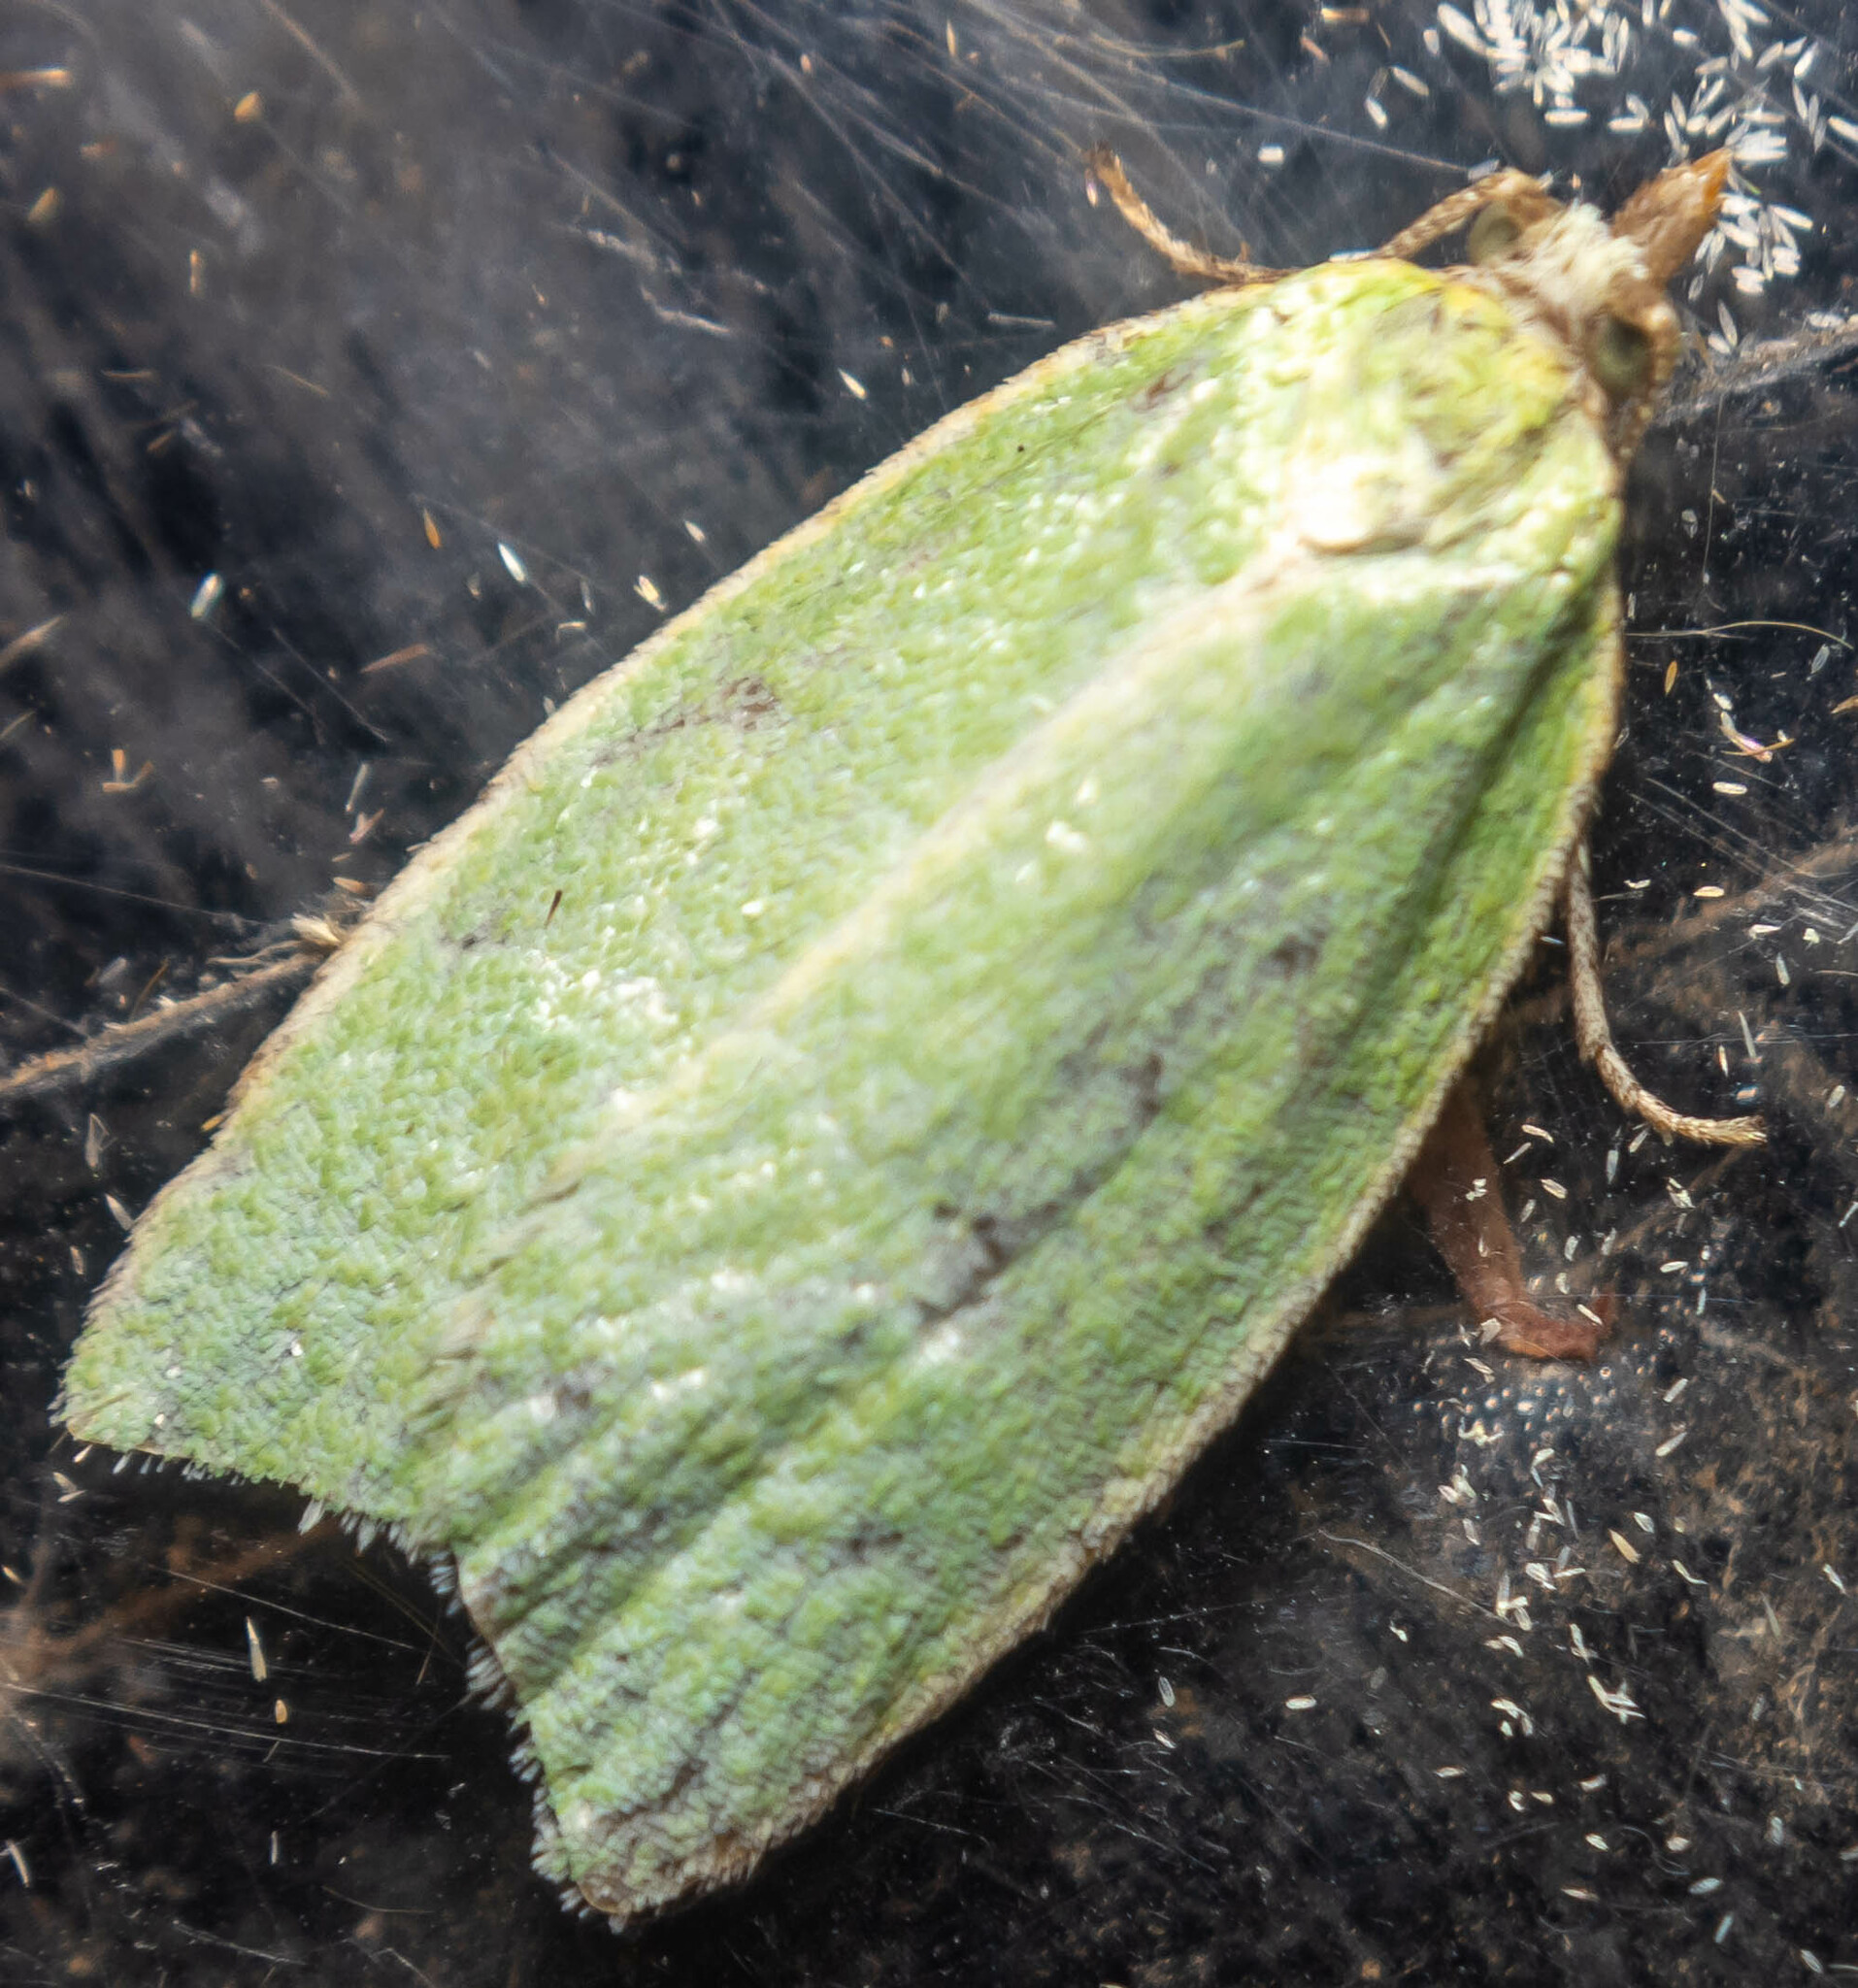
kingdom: Animalia
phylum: Arthropoda
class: Insecta
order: Lepidoptera
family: Tortricidae
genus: Tortrix
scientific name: Tortrix viridana
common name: Green oak tortrix
